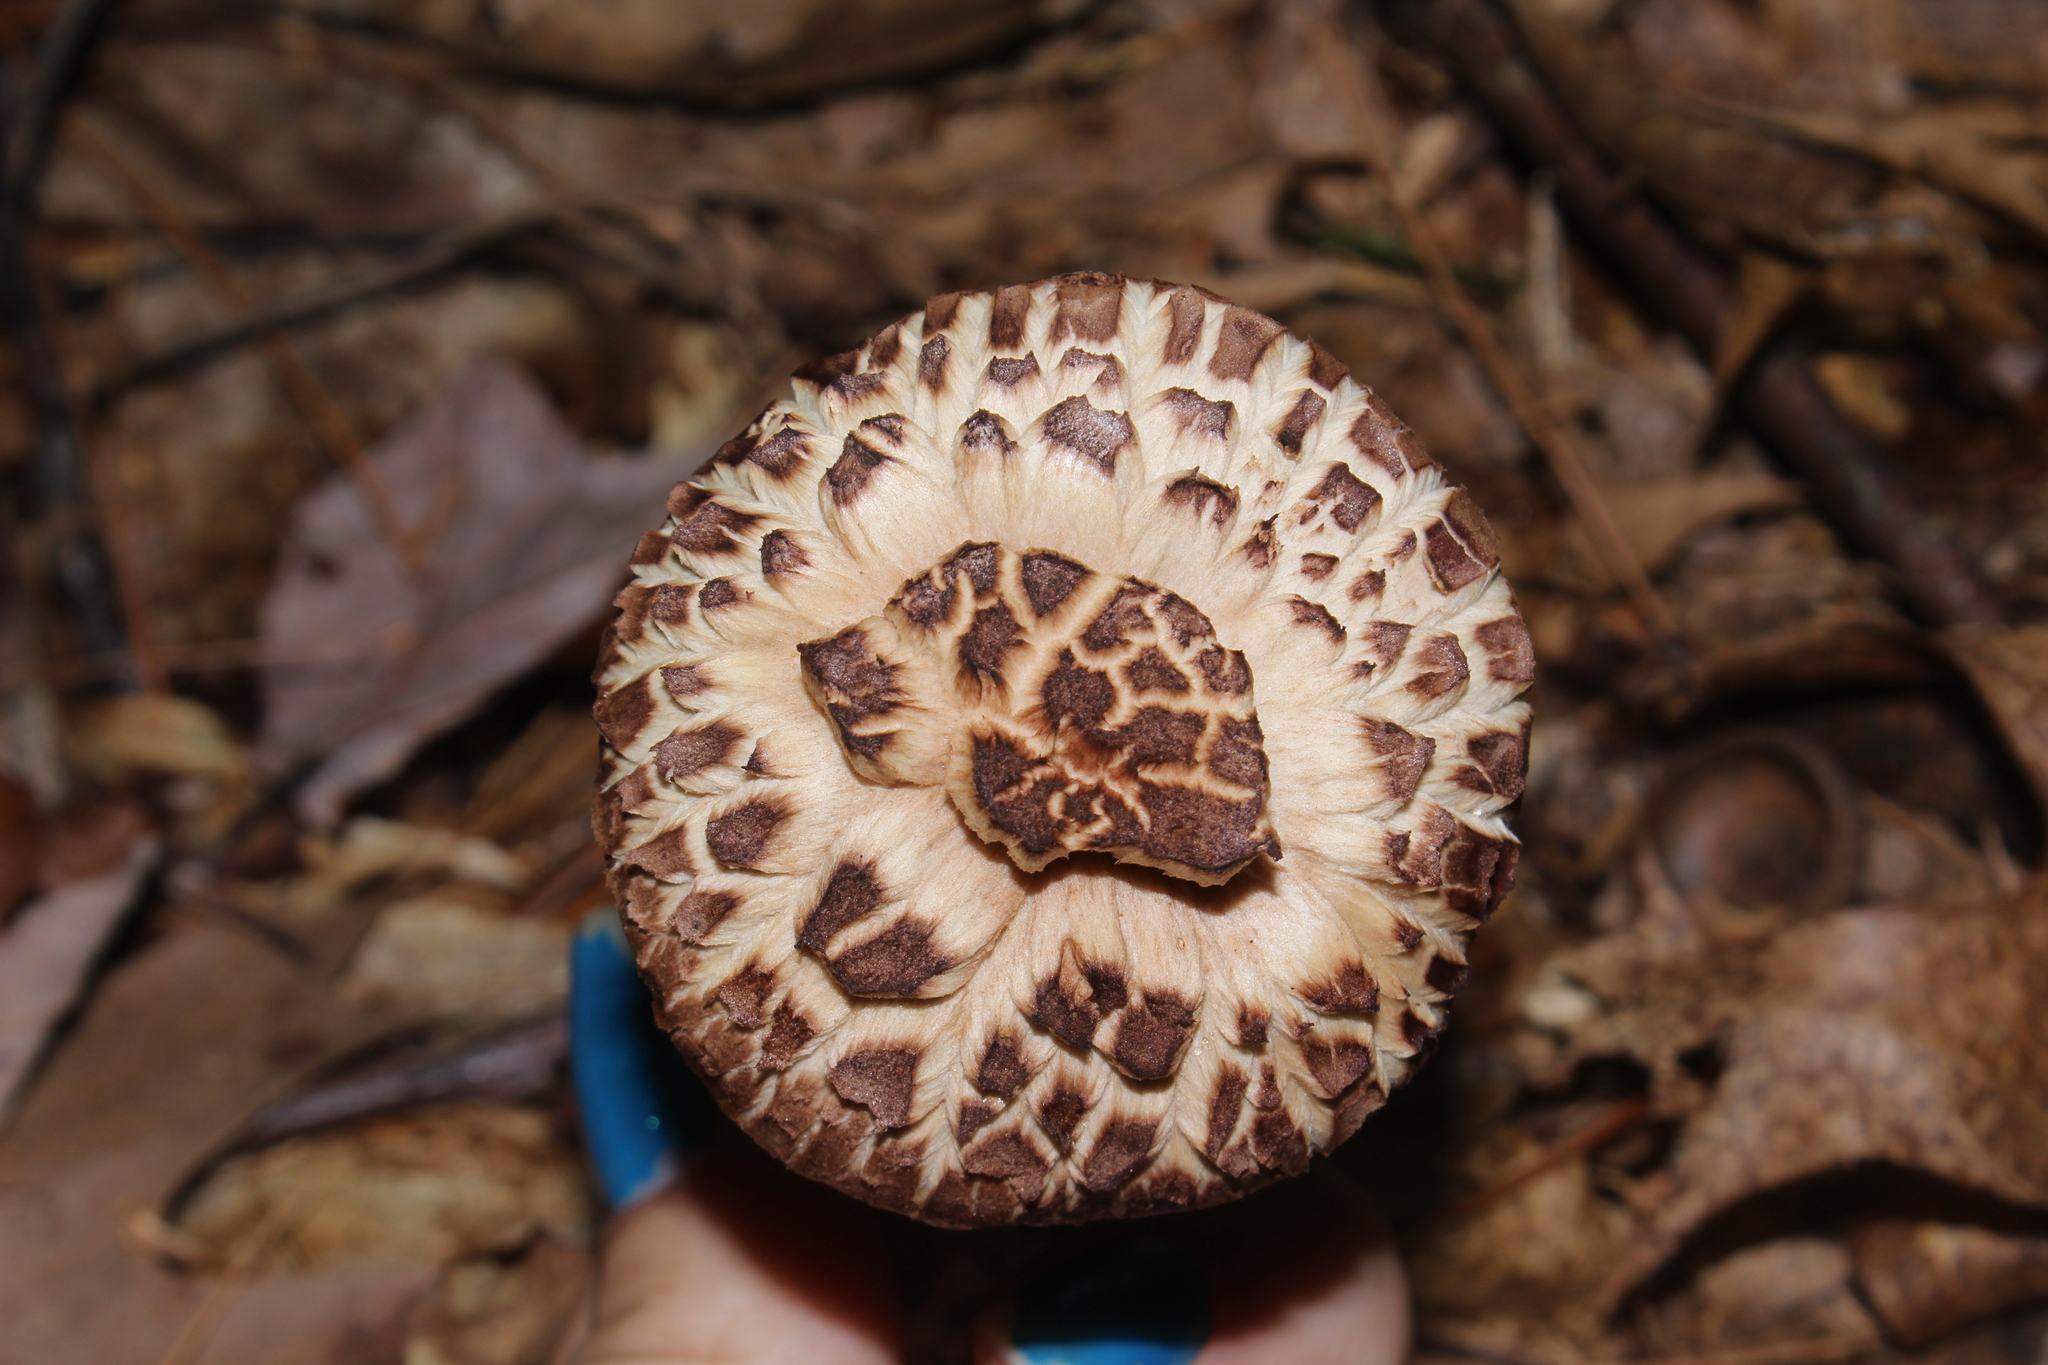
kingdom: Fungi
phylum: Basidiomycota
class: Agaricomycetes
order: Thelephorales
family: Bankeraceae
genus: Sarcodon
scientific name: Sarcodon imbricatus
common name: Shingled hedgehog
